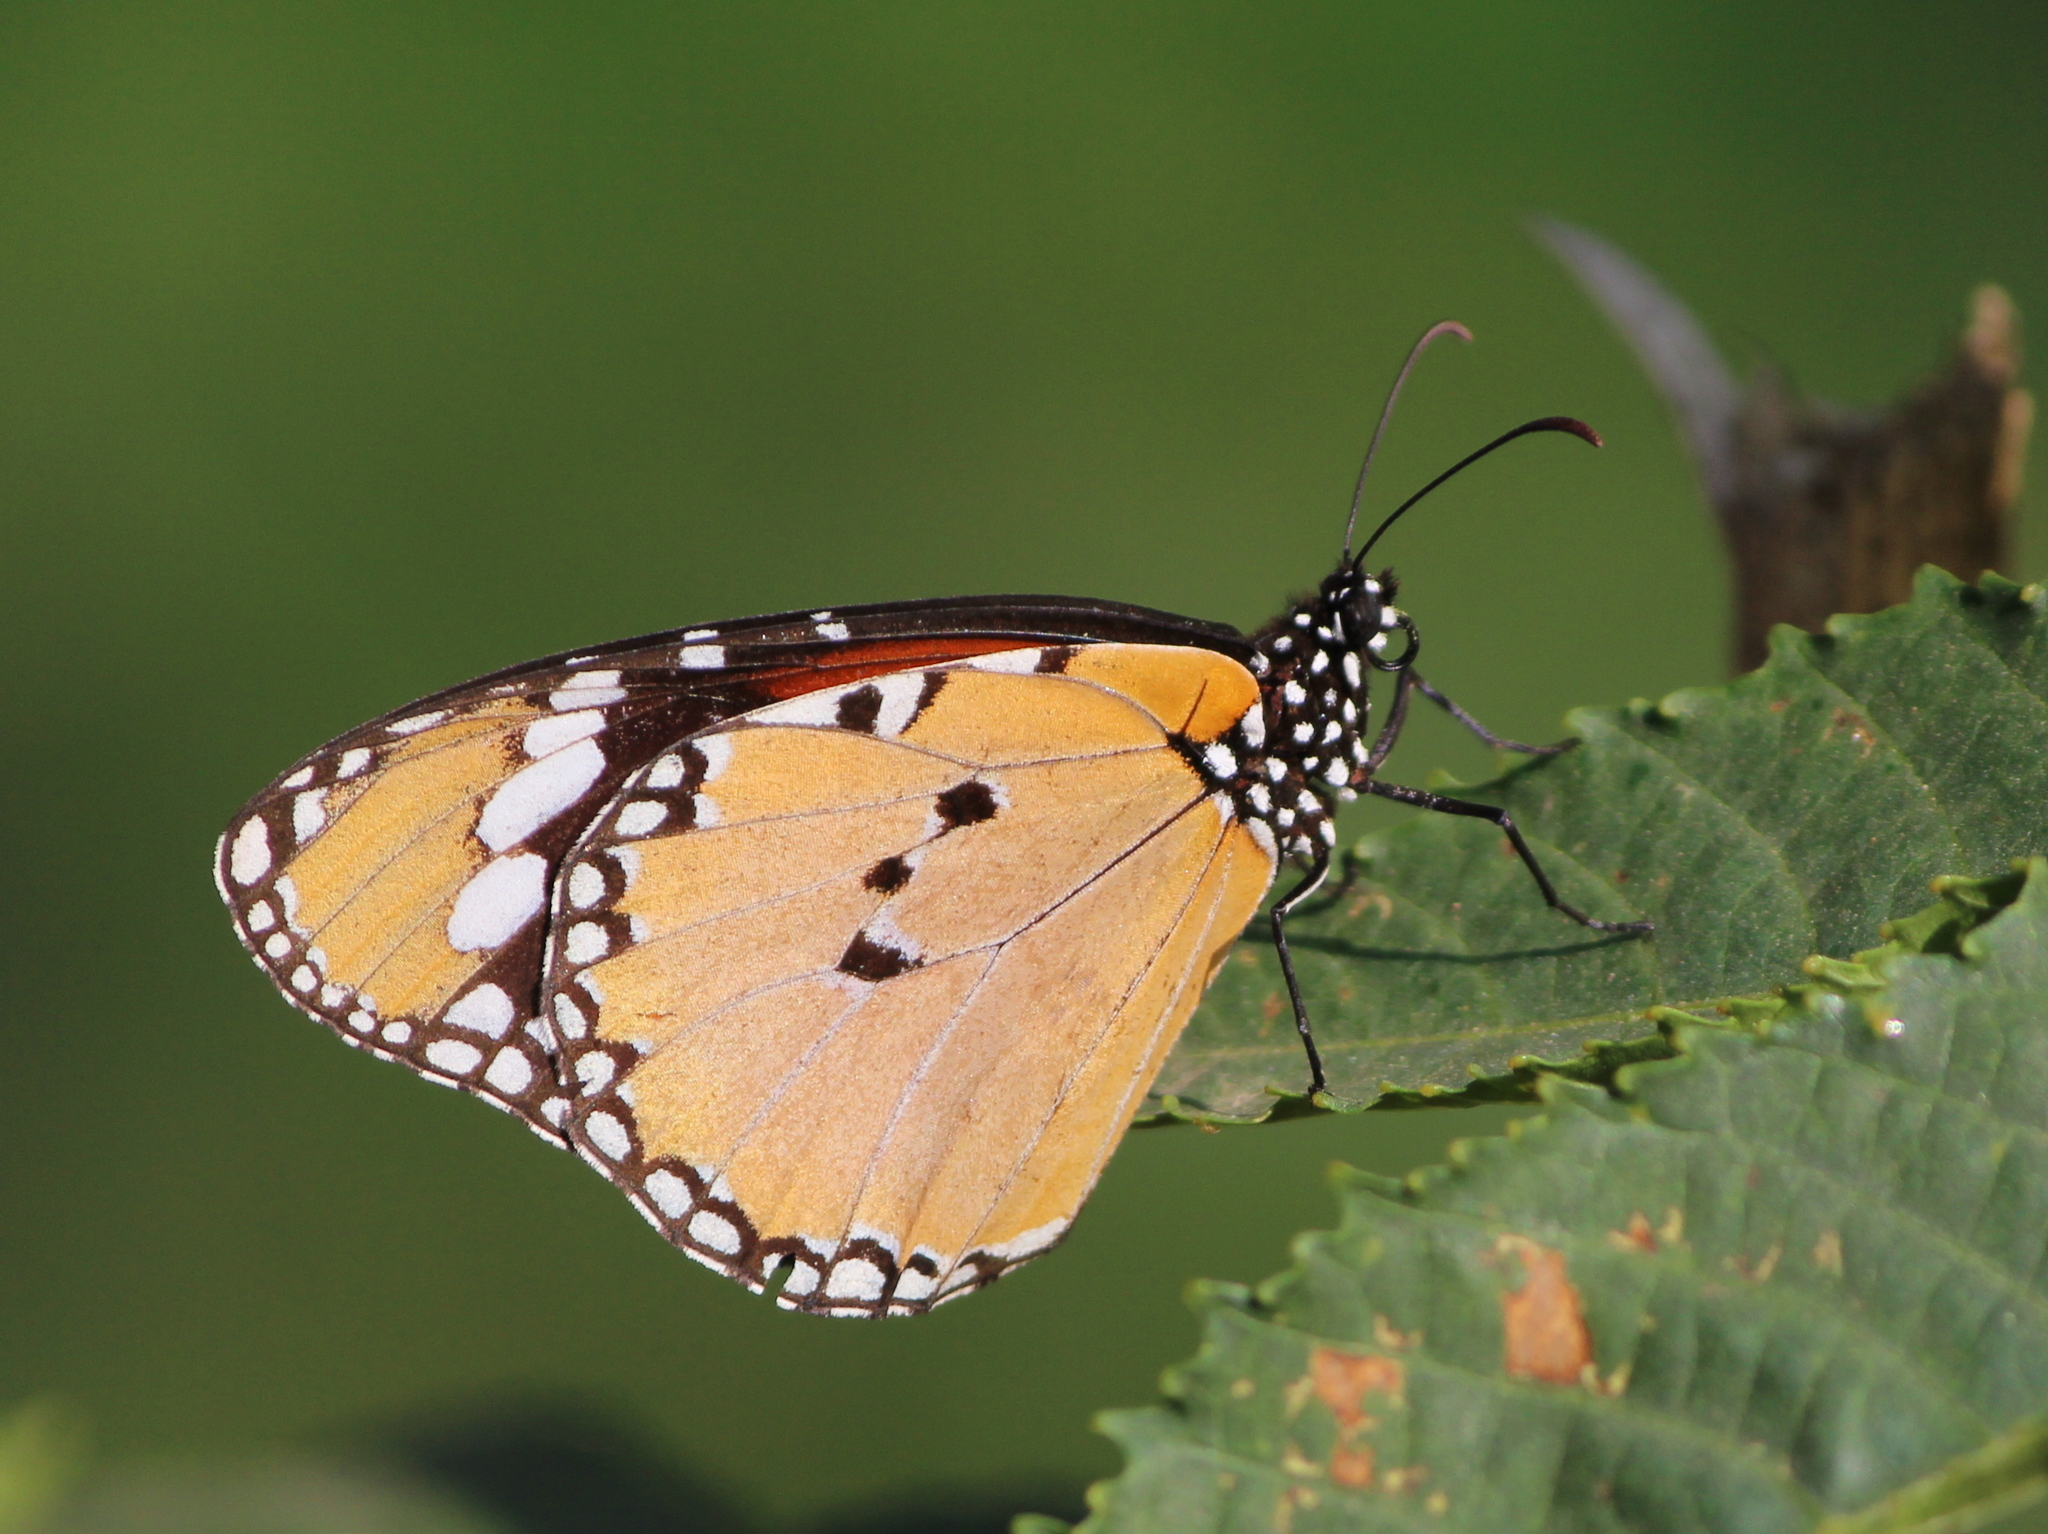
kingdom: Animalia
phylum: Arthropoda
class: Insecta
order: Lepidoptera
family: Nymphalidae
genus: Danaus
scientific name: Danaus chrysippus
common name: Plain tiger
